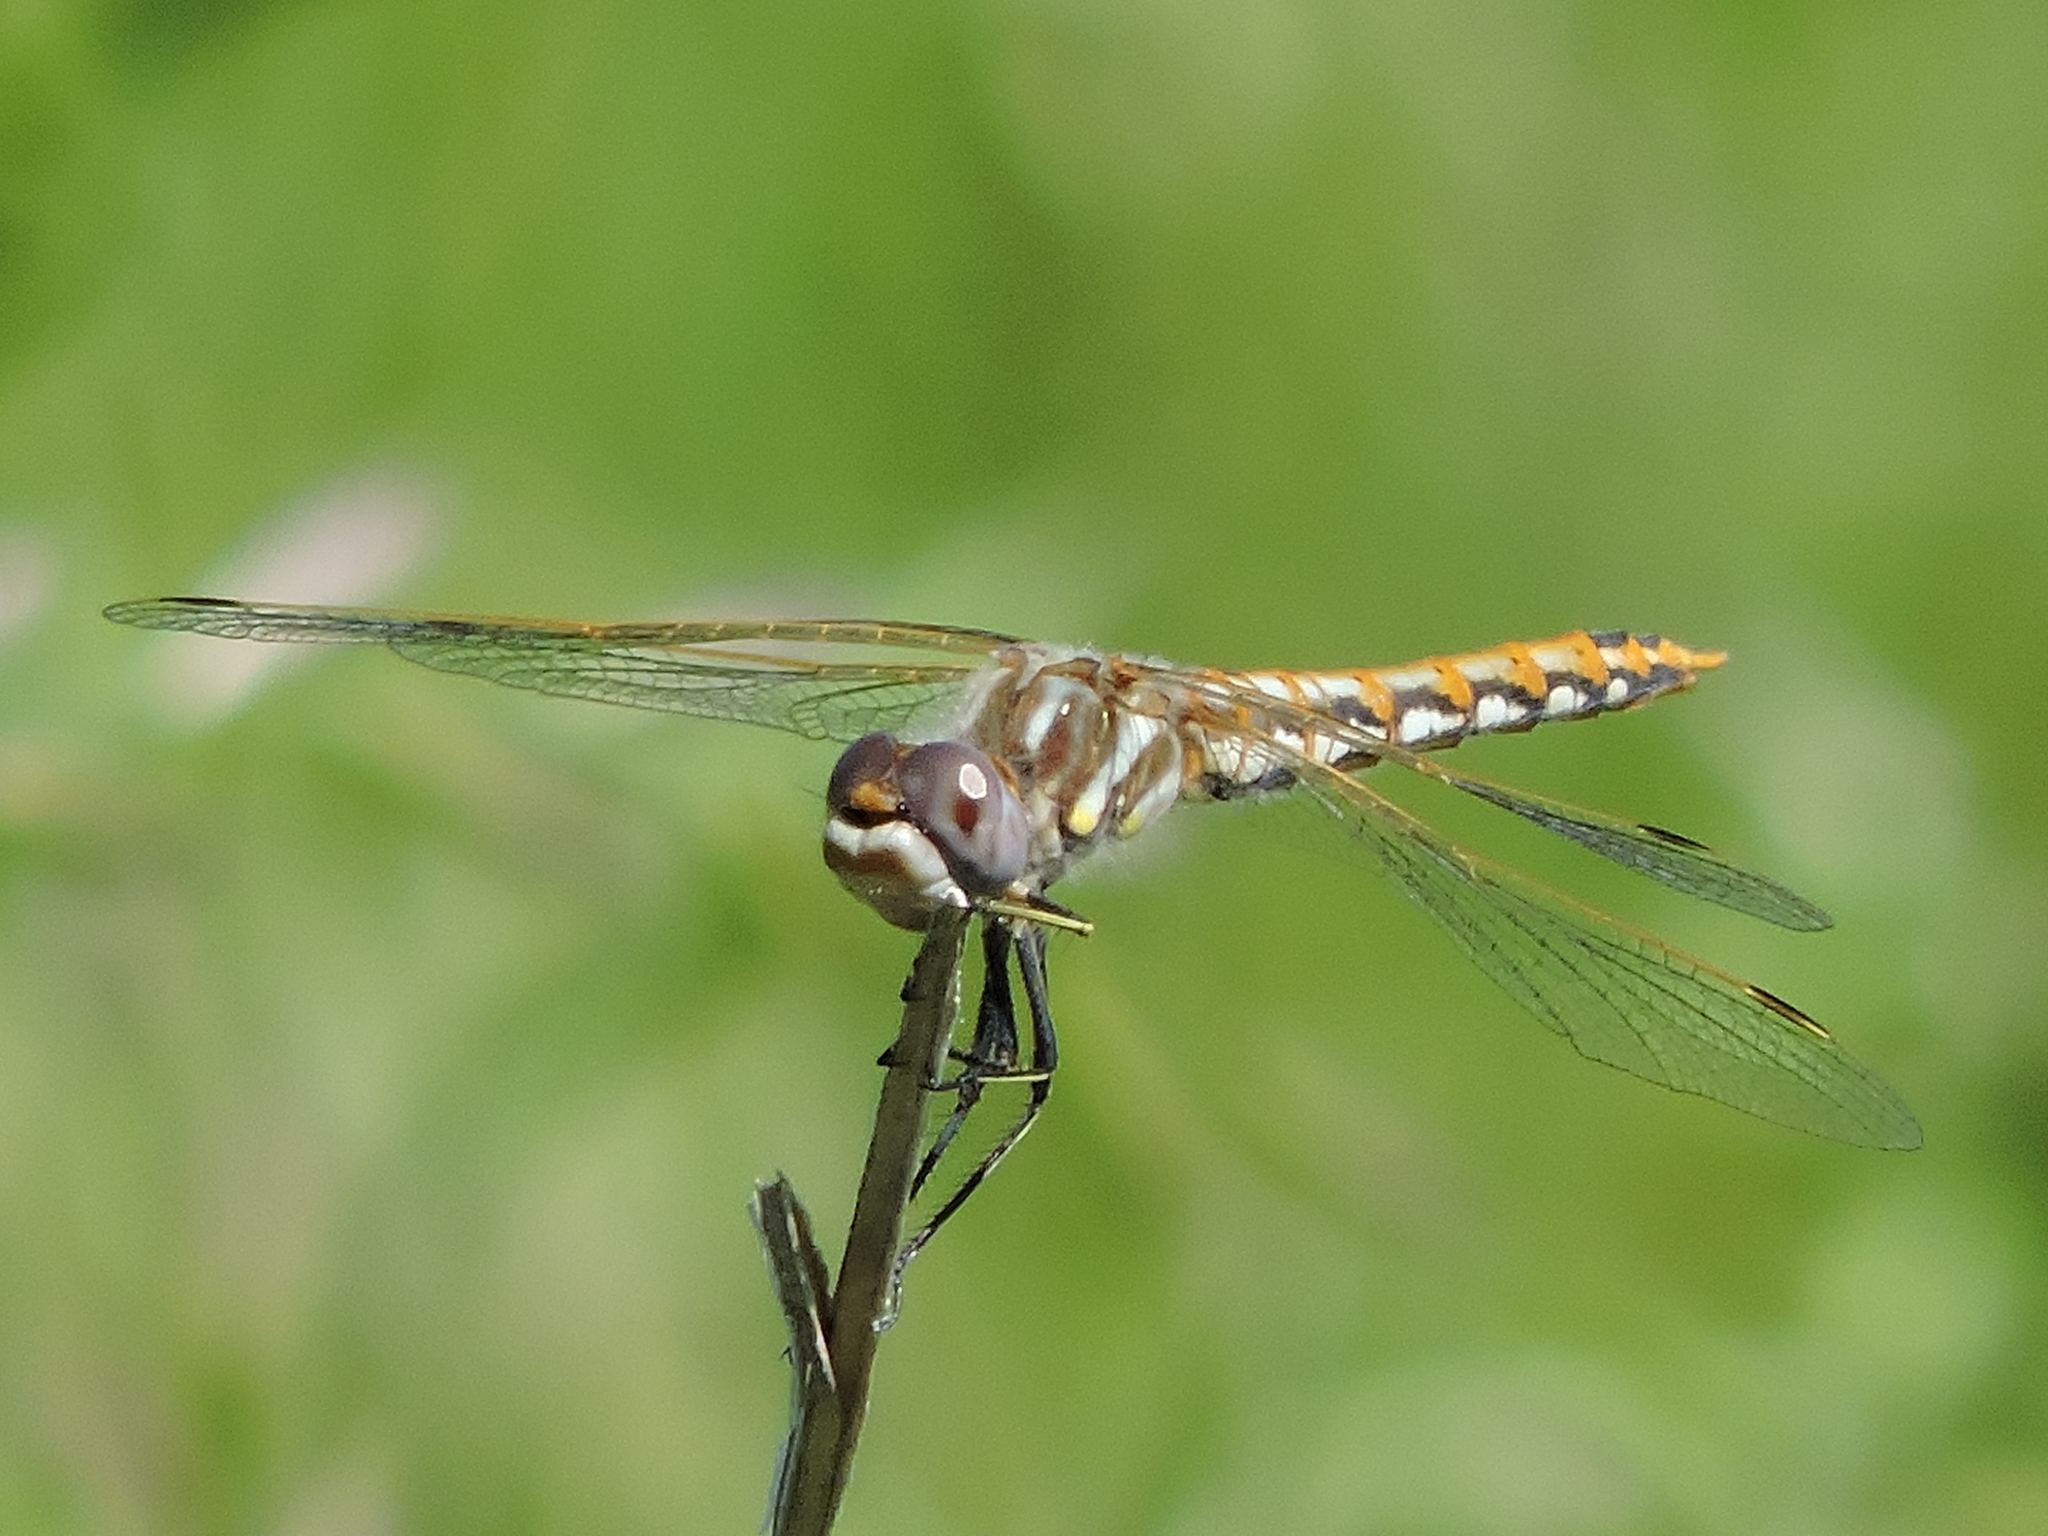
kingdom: Animalia
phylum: Arthropoda
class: Insecta
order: Odonata
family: Libellulidae
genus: Sympetrum
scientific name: Sympetrum corruptum
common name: Variegated meadowhawk
